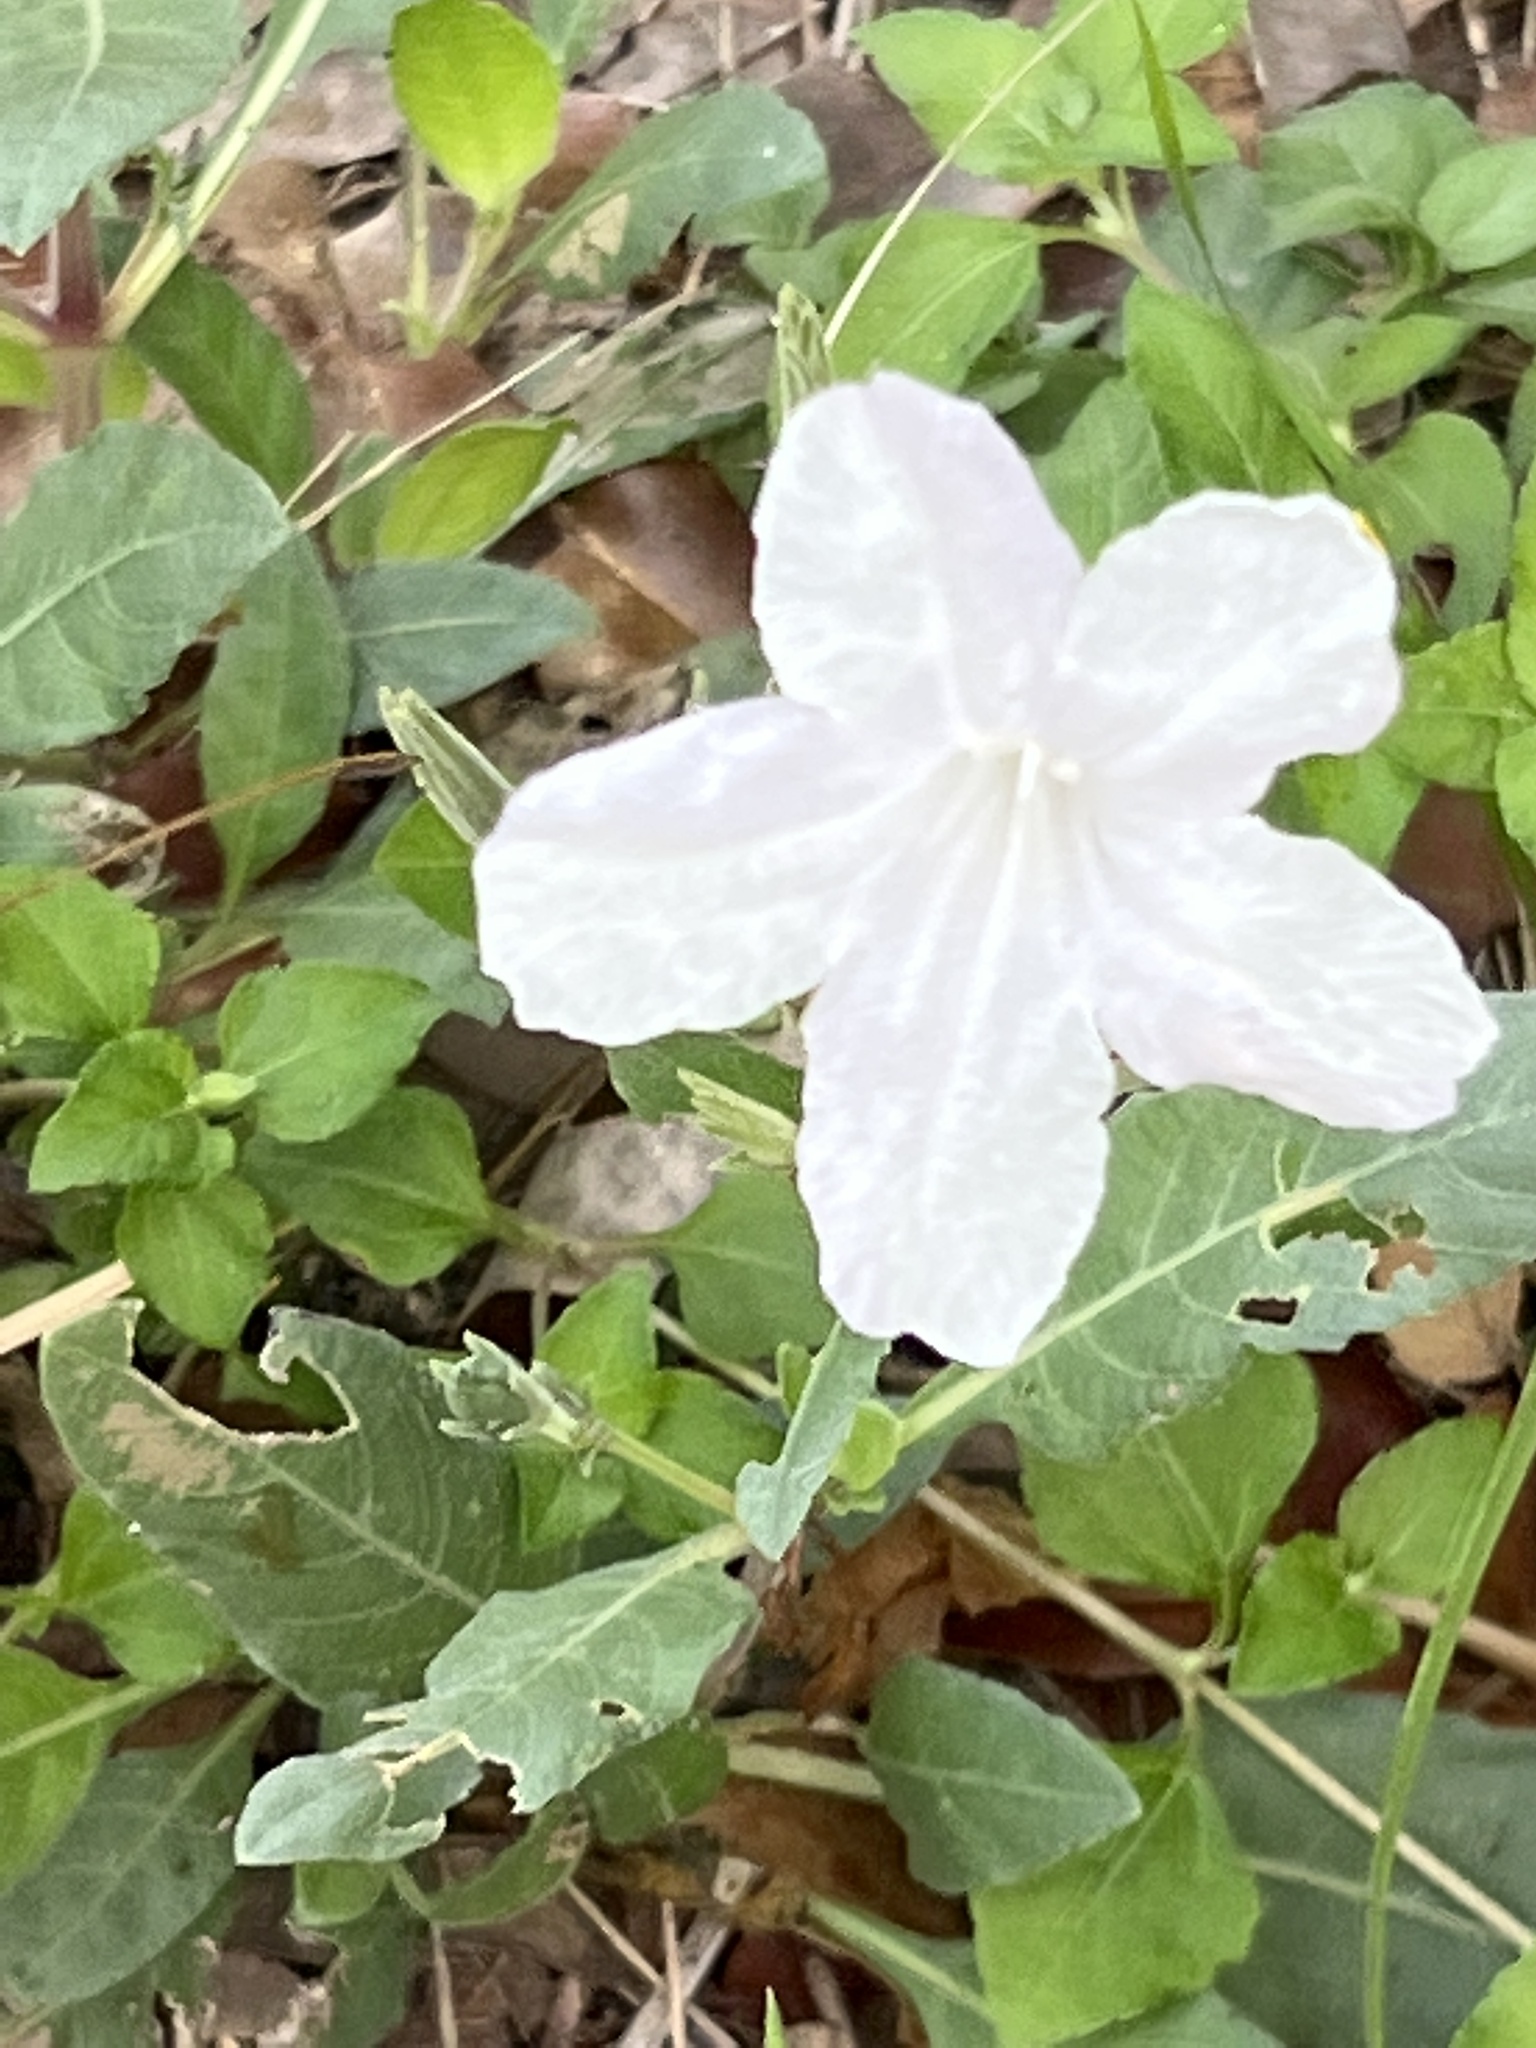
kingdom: Plantae
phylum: Tracheophyta
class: Magnoliopsida
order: Lamiales
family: Acanthaceae
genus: Ruellia
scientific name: Ruellia metziae
